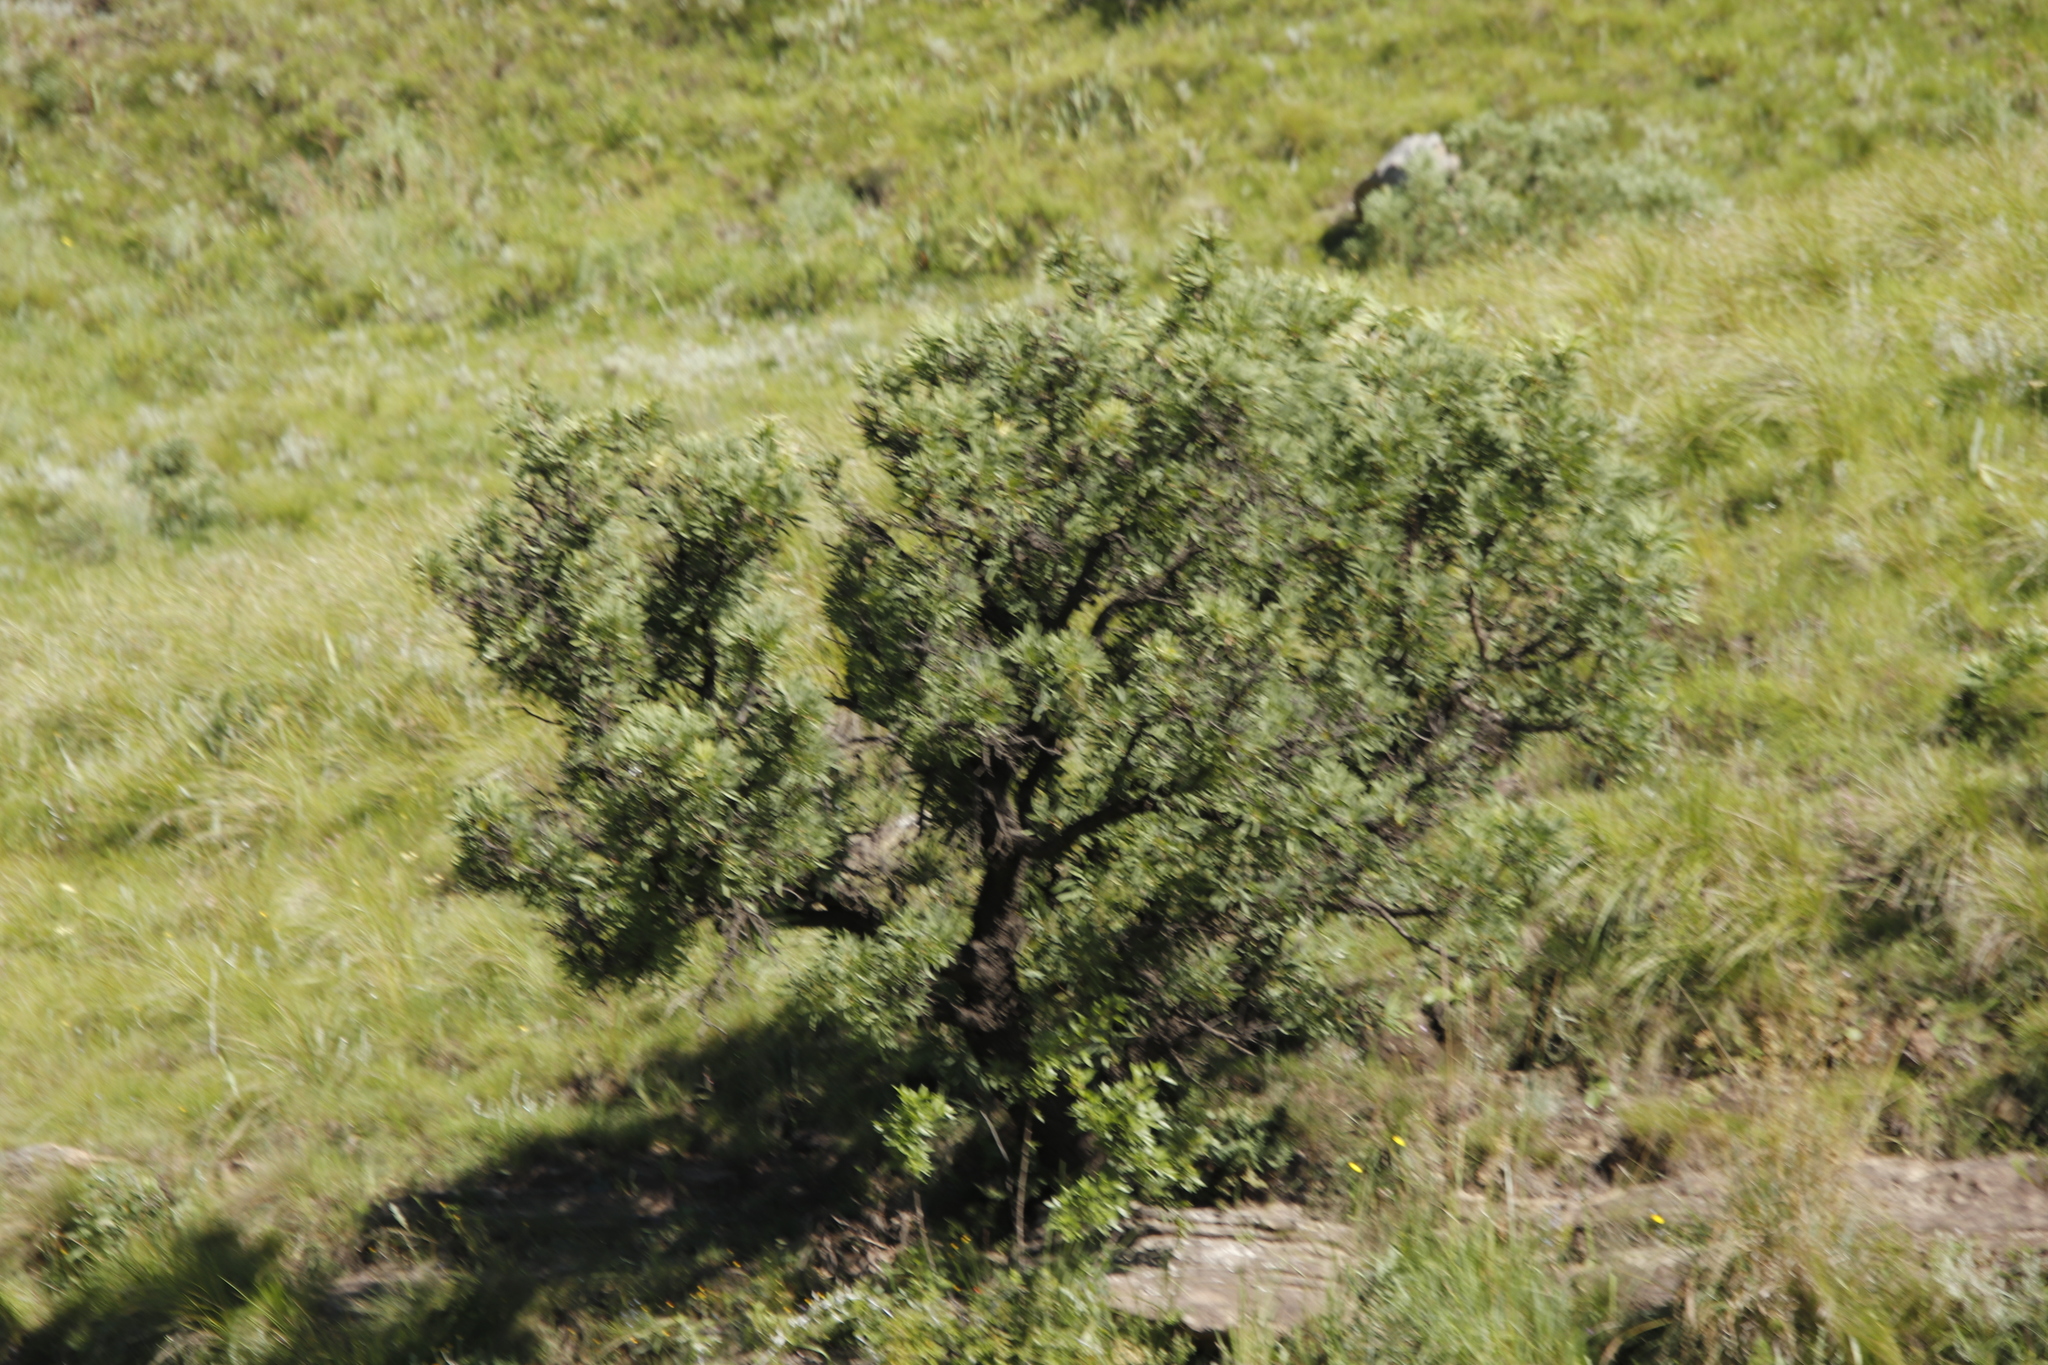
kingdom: Plantae
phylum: Tracheophyta
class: Magnoliopsida
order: Proteales
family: Proteaceae
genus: Protea
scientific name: Protea caffra
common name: Common sugarbush
